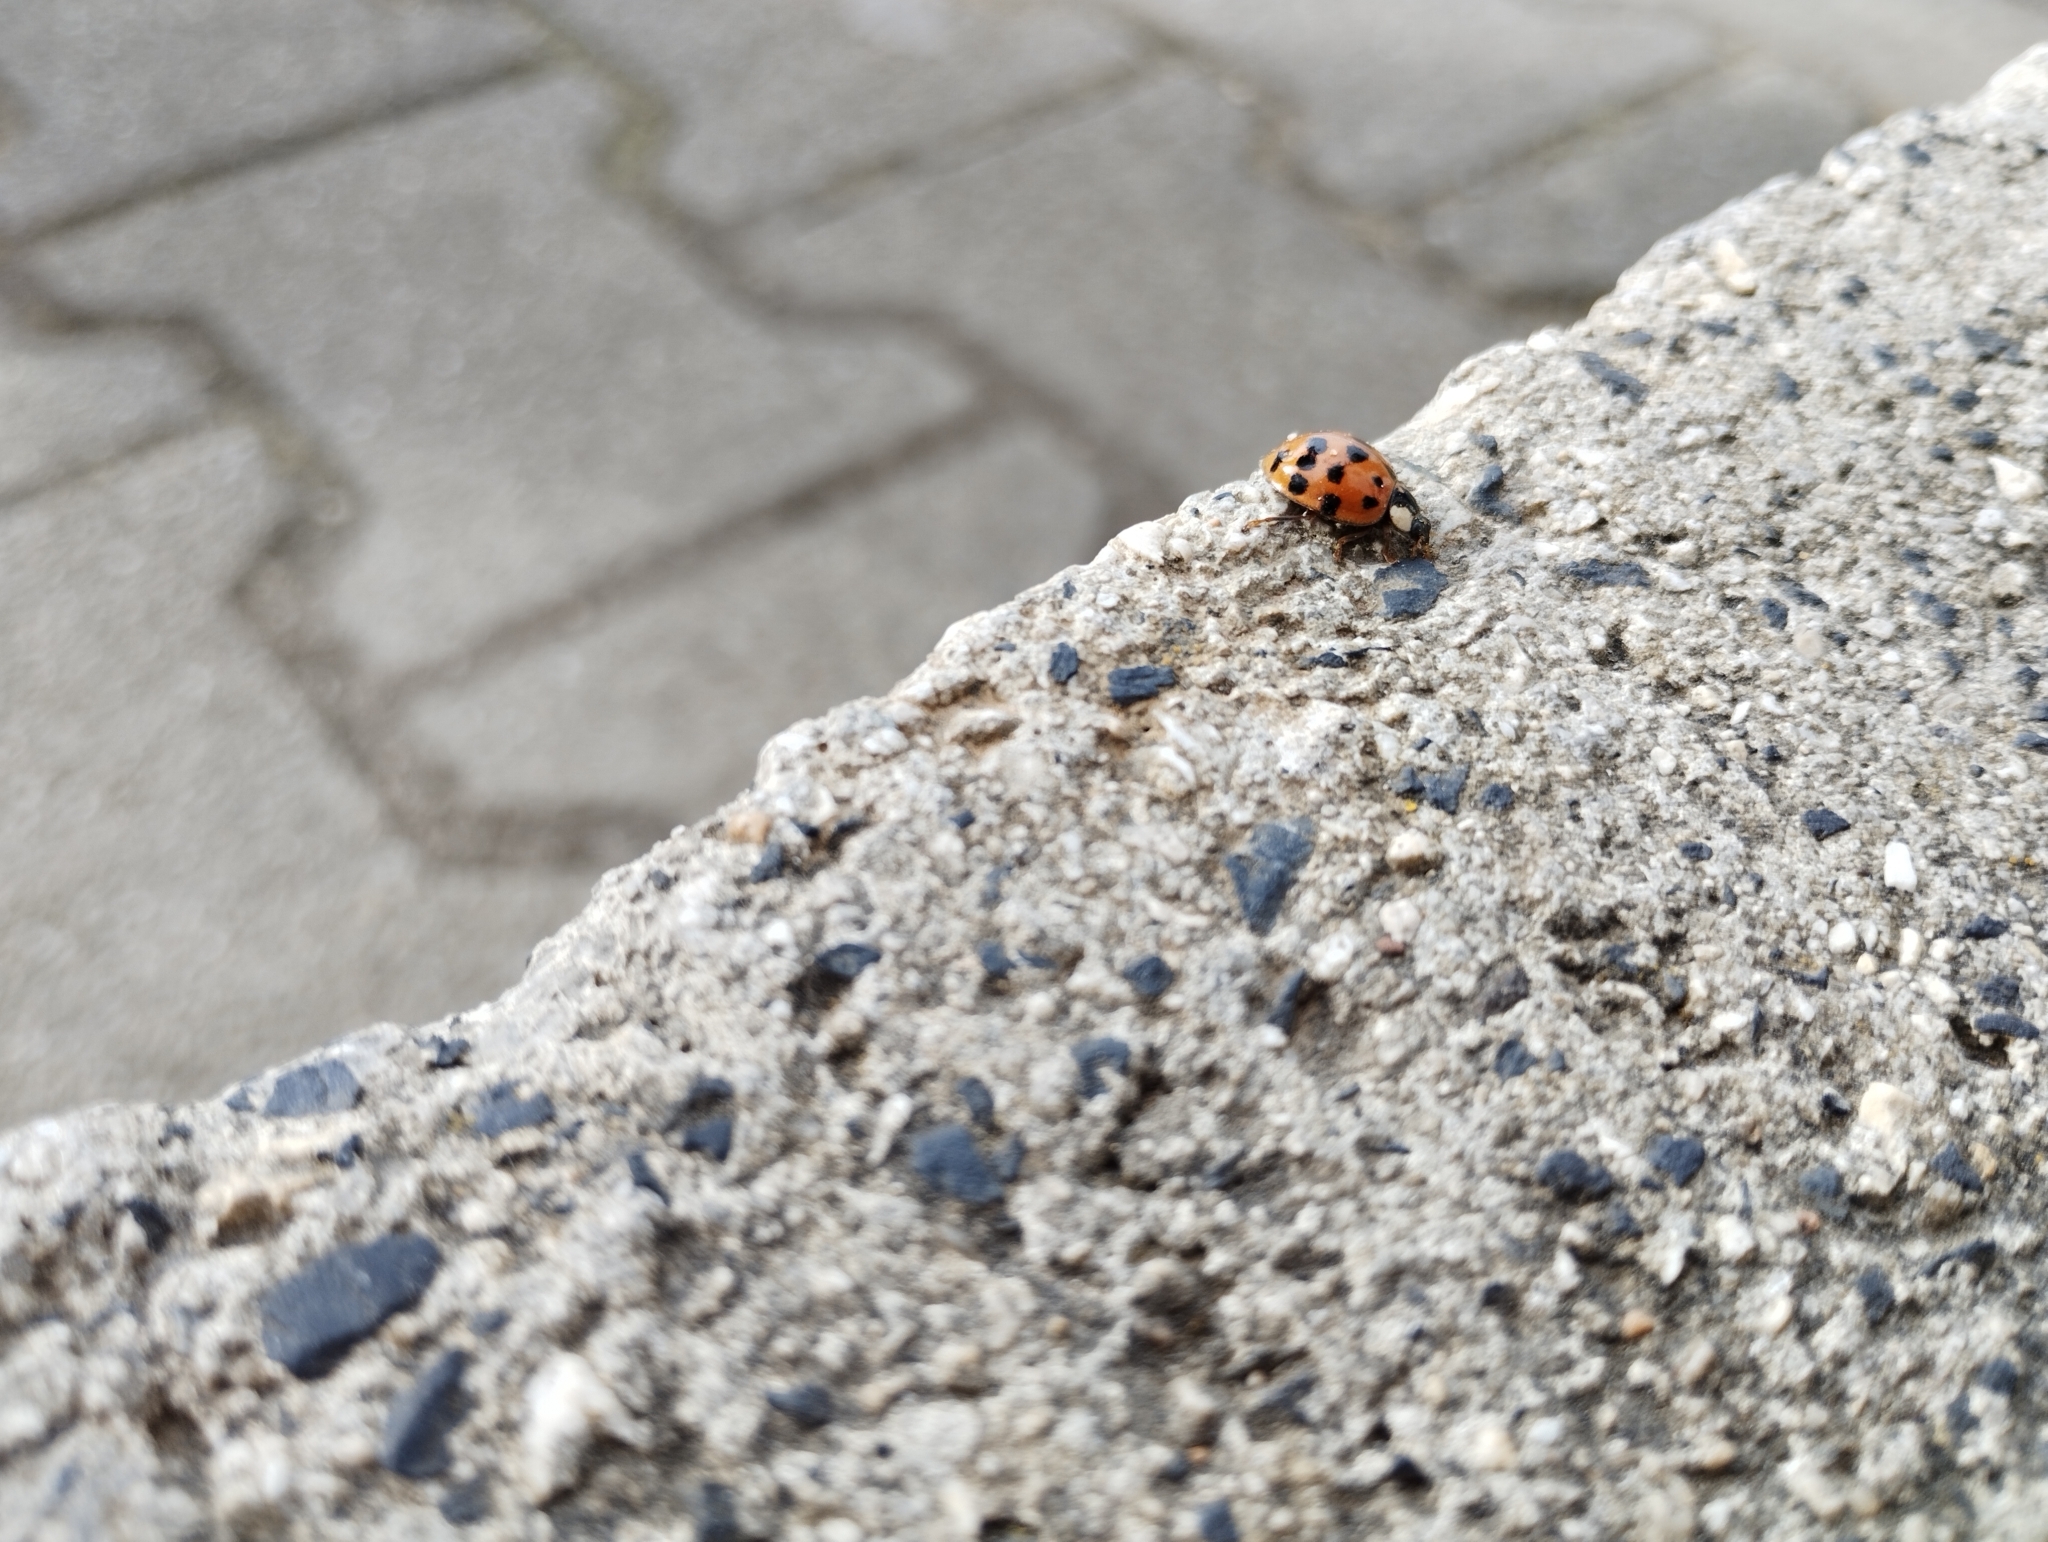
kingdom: Animalia
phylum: Arthropoda
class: Insecta
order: Coleoptera
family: Coccinellidae
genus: Harmonia
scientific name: Harmonia axyridis
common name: Harlequin ladybird
